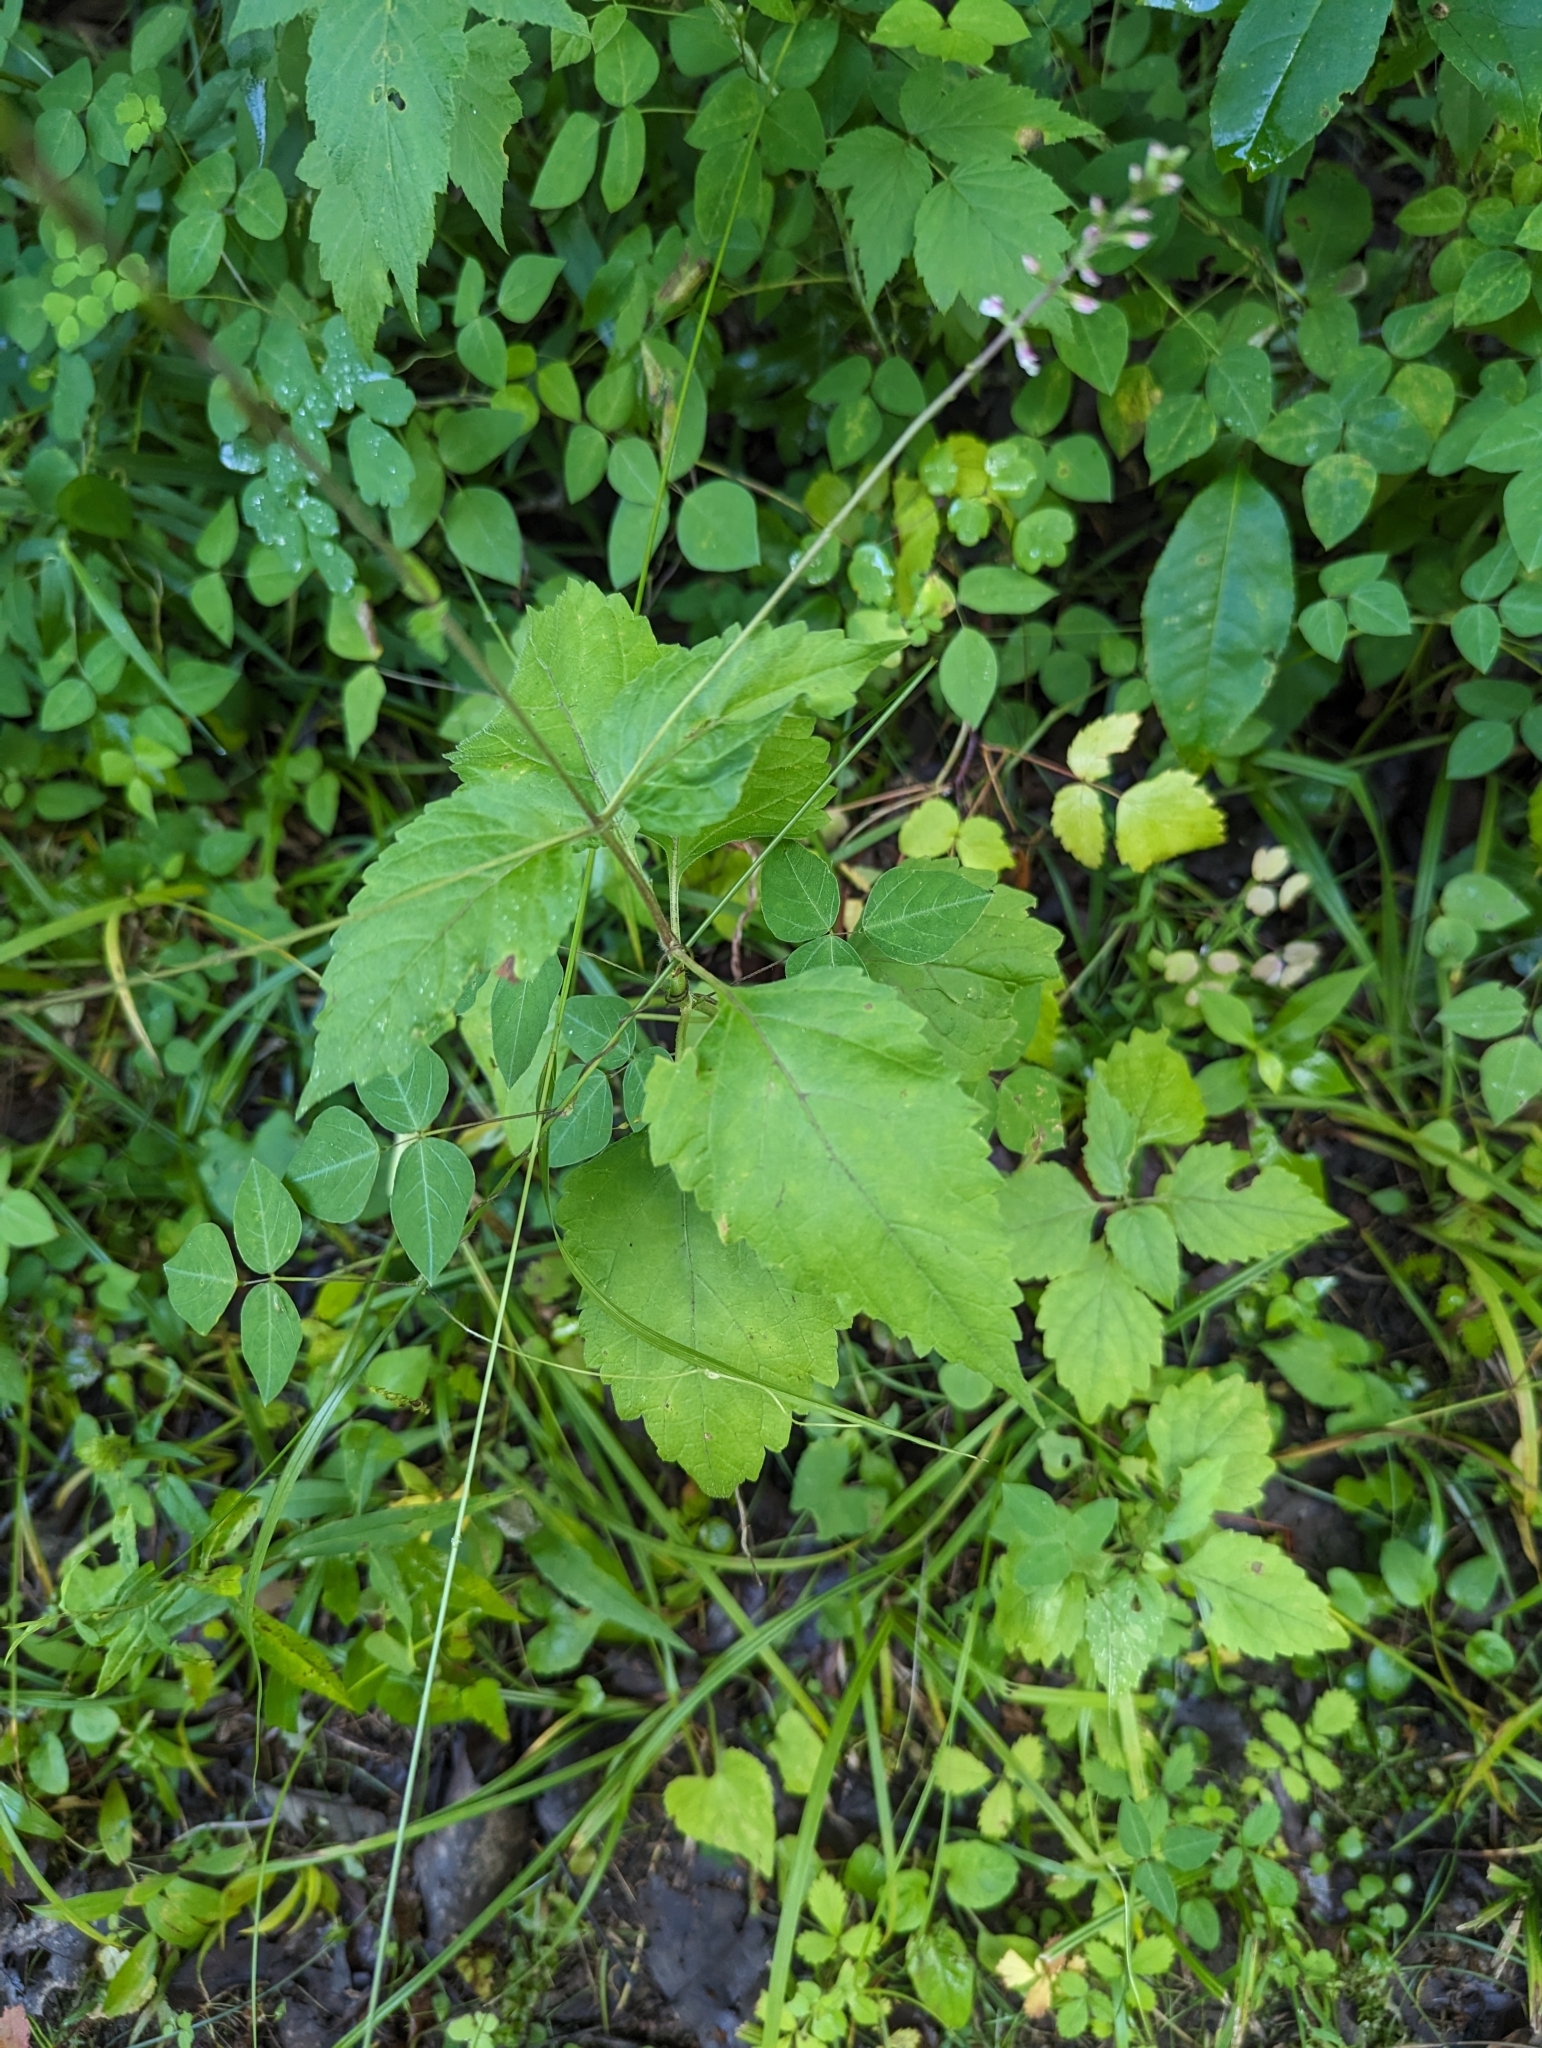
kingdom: Plantae
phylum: Tracheophyta
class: Magnoliopsida
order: Lamiales
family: Phrymaceae
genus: Phryma
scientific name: Phryma leptostachya
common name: American lopseed
